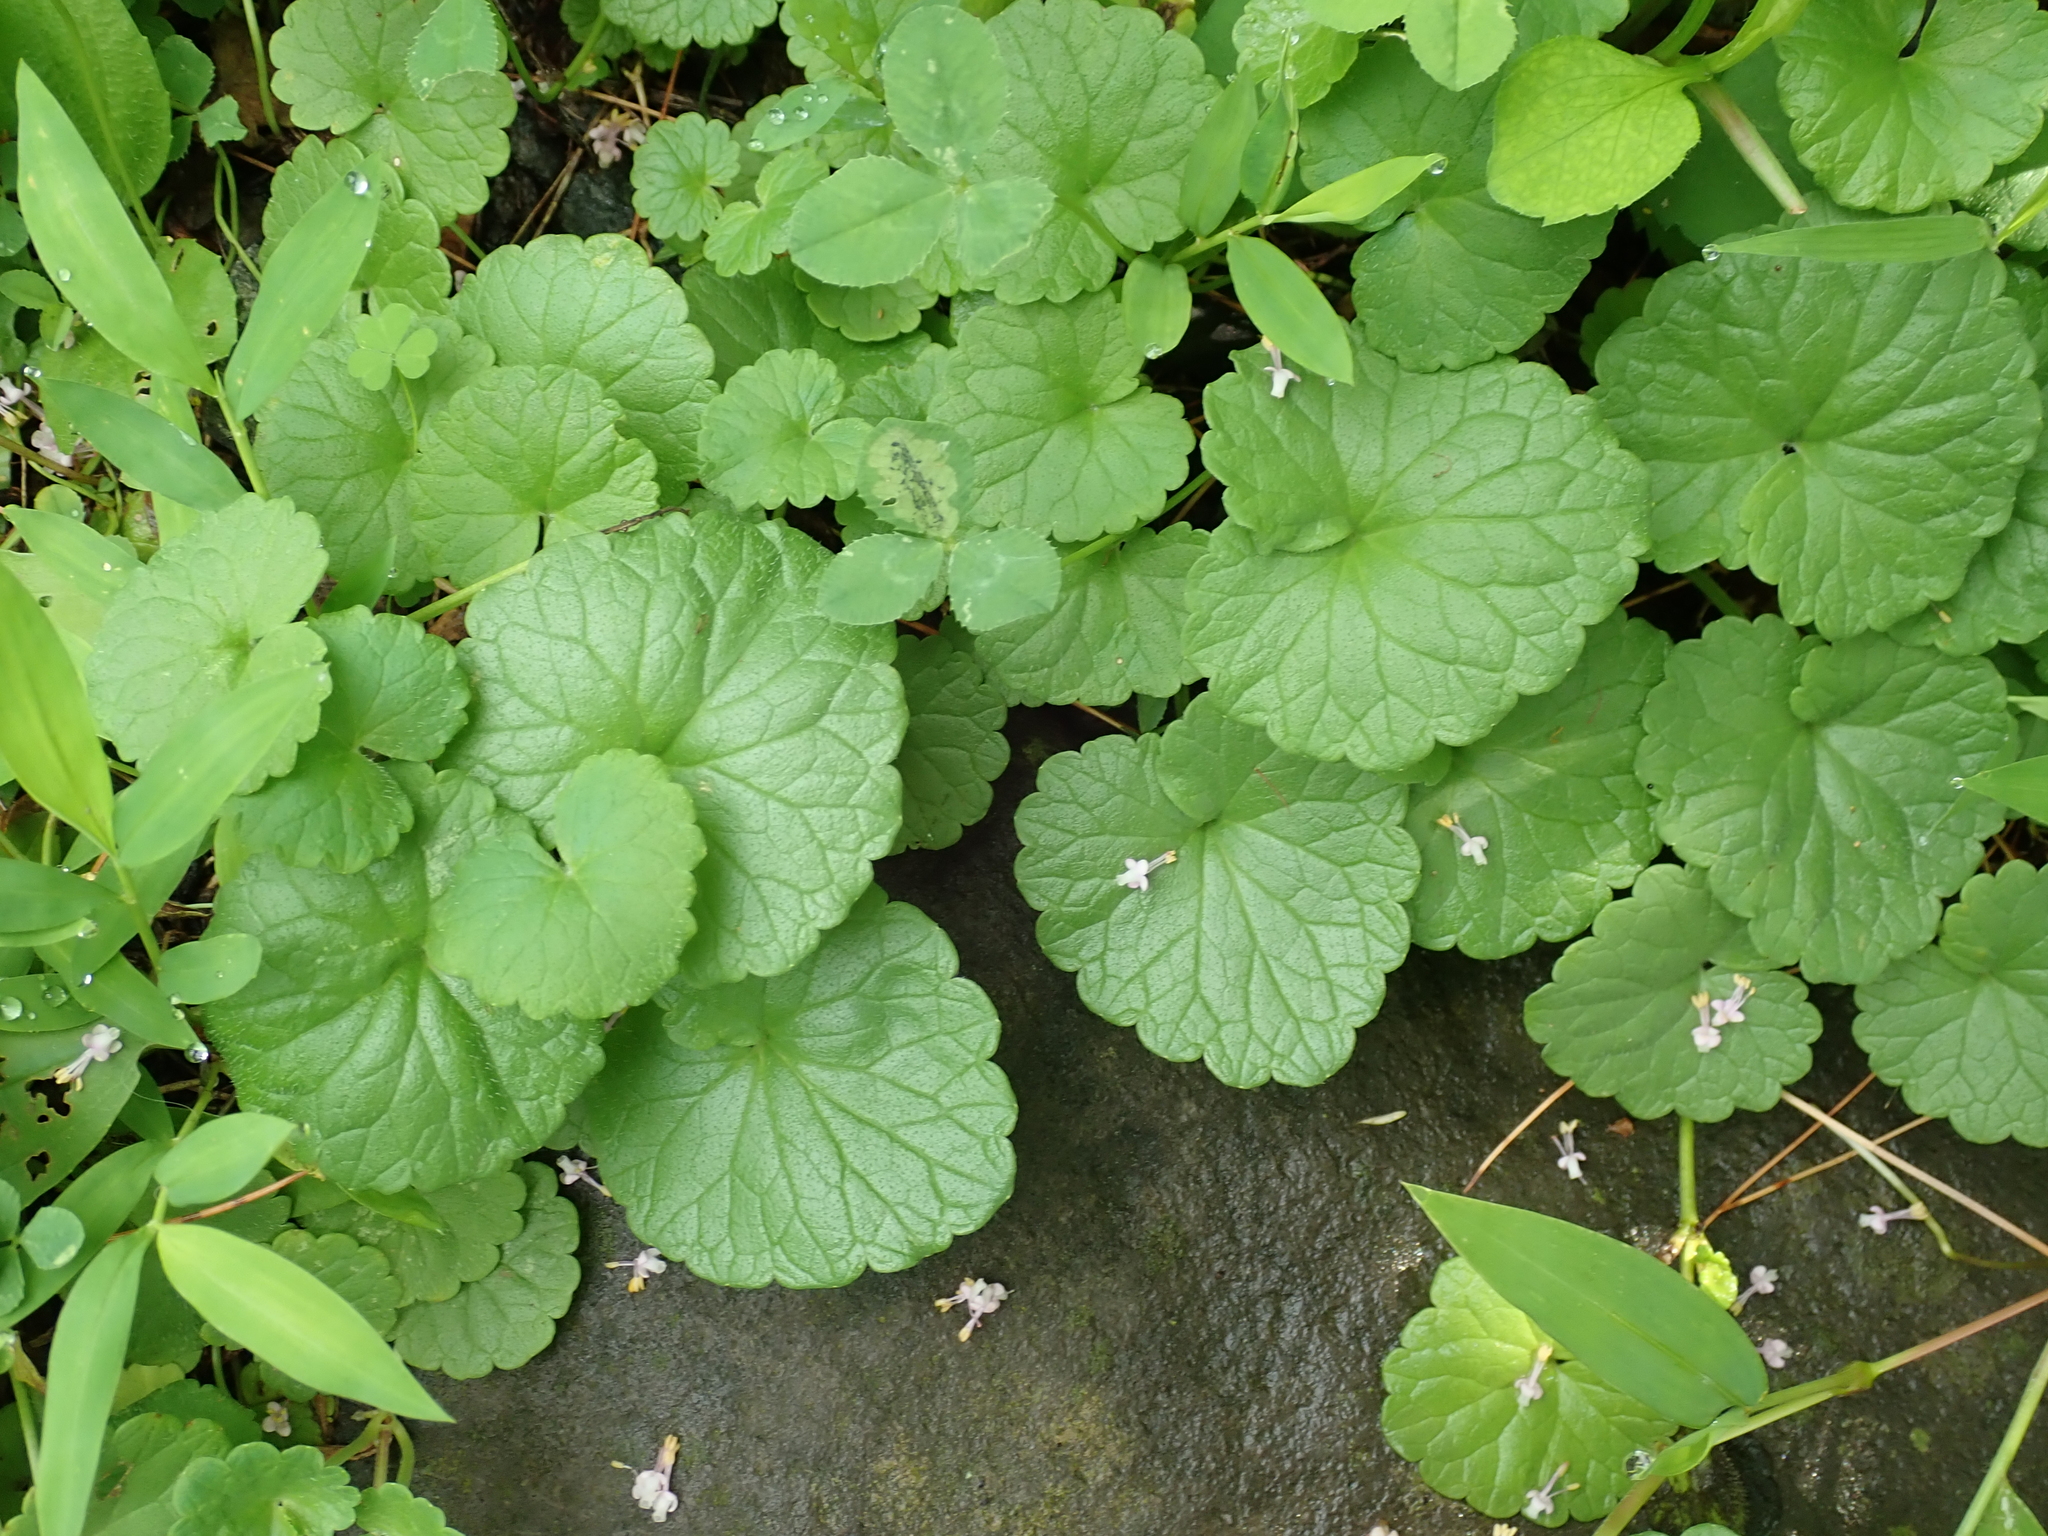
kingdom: Plantae
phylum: Tracheophyta
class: Magnoliopsida
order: Lamiales
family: Lamiaceae
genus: Glechoma
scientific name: Glechoma hederacea
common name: Ground ivy
